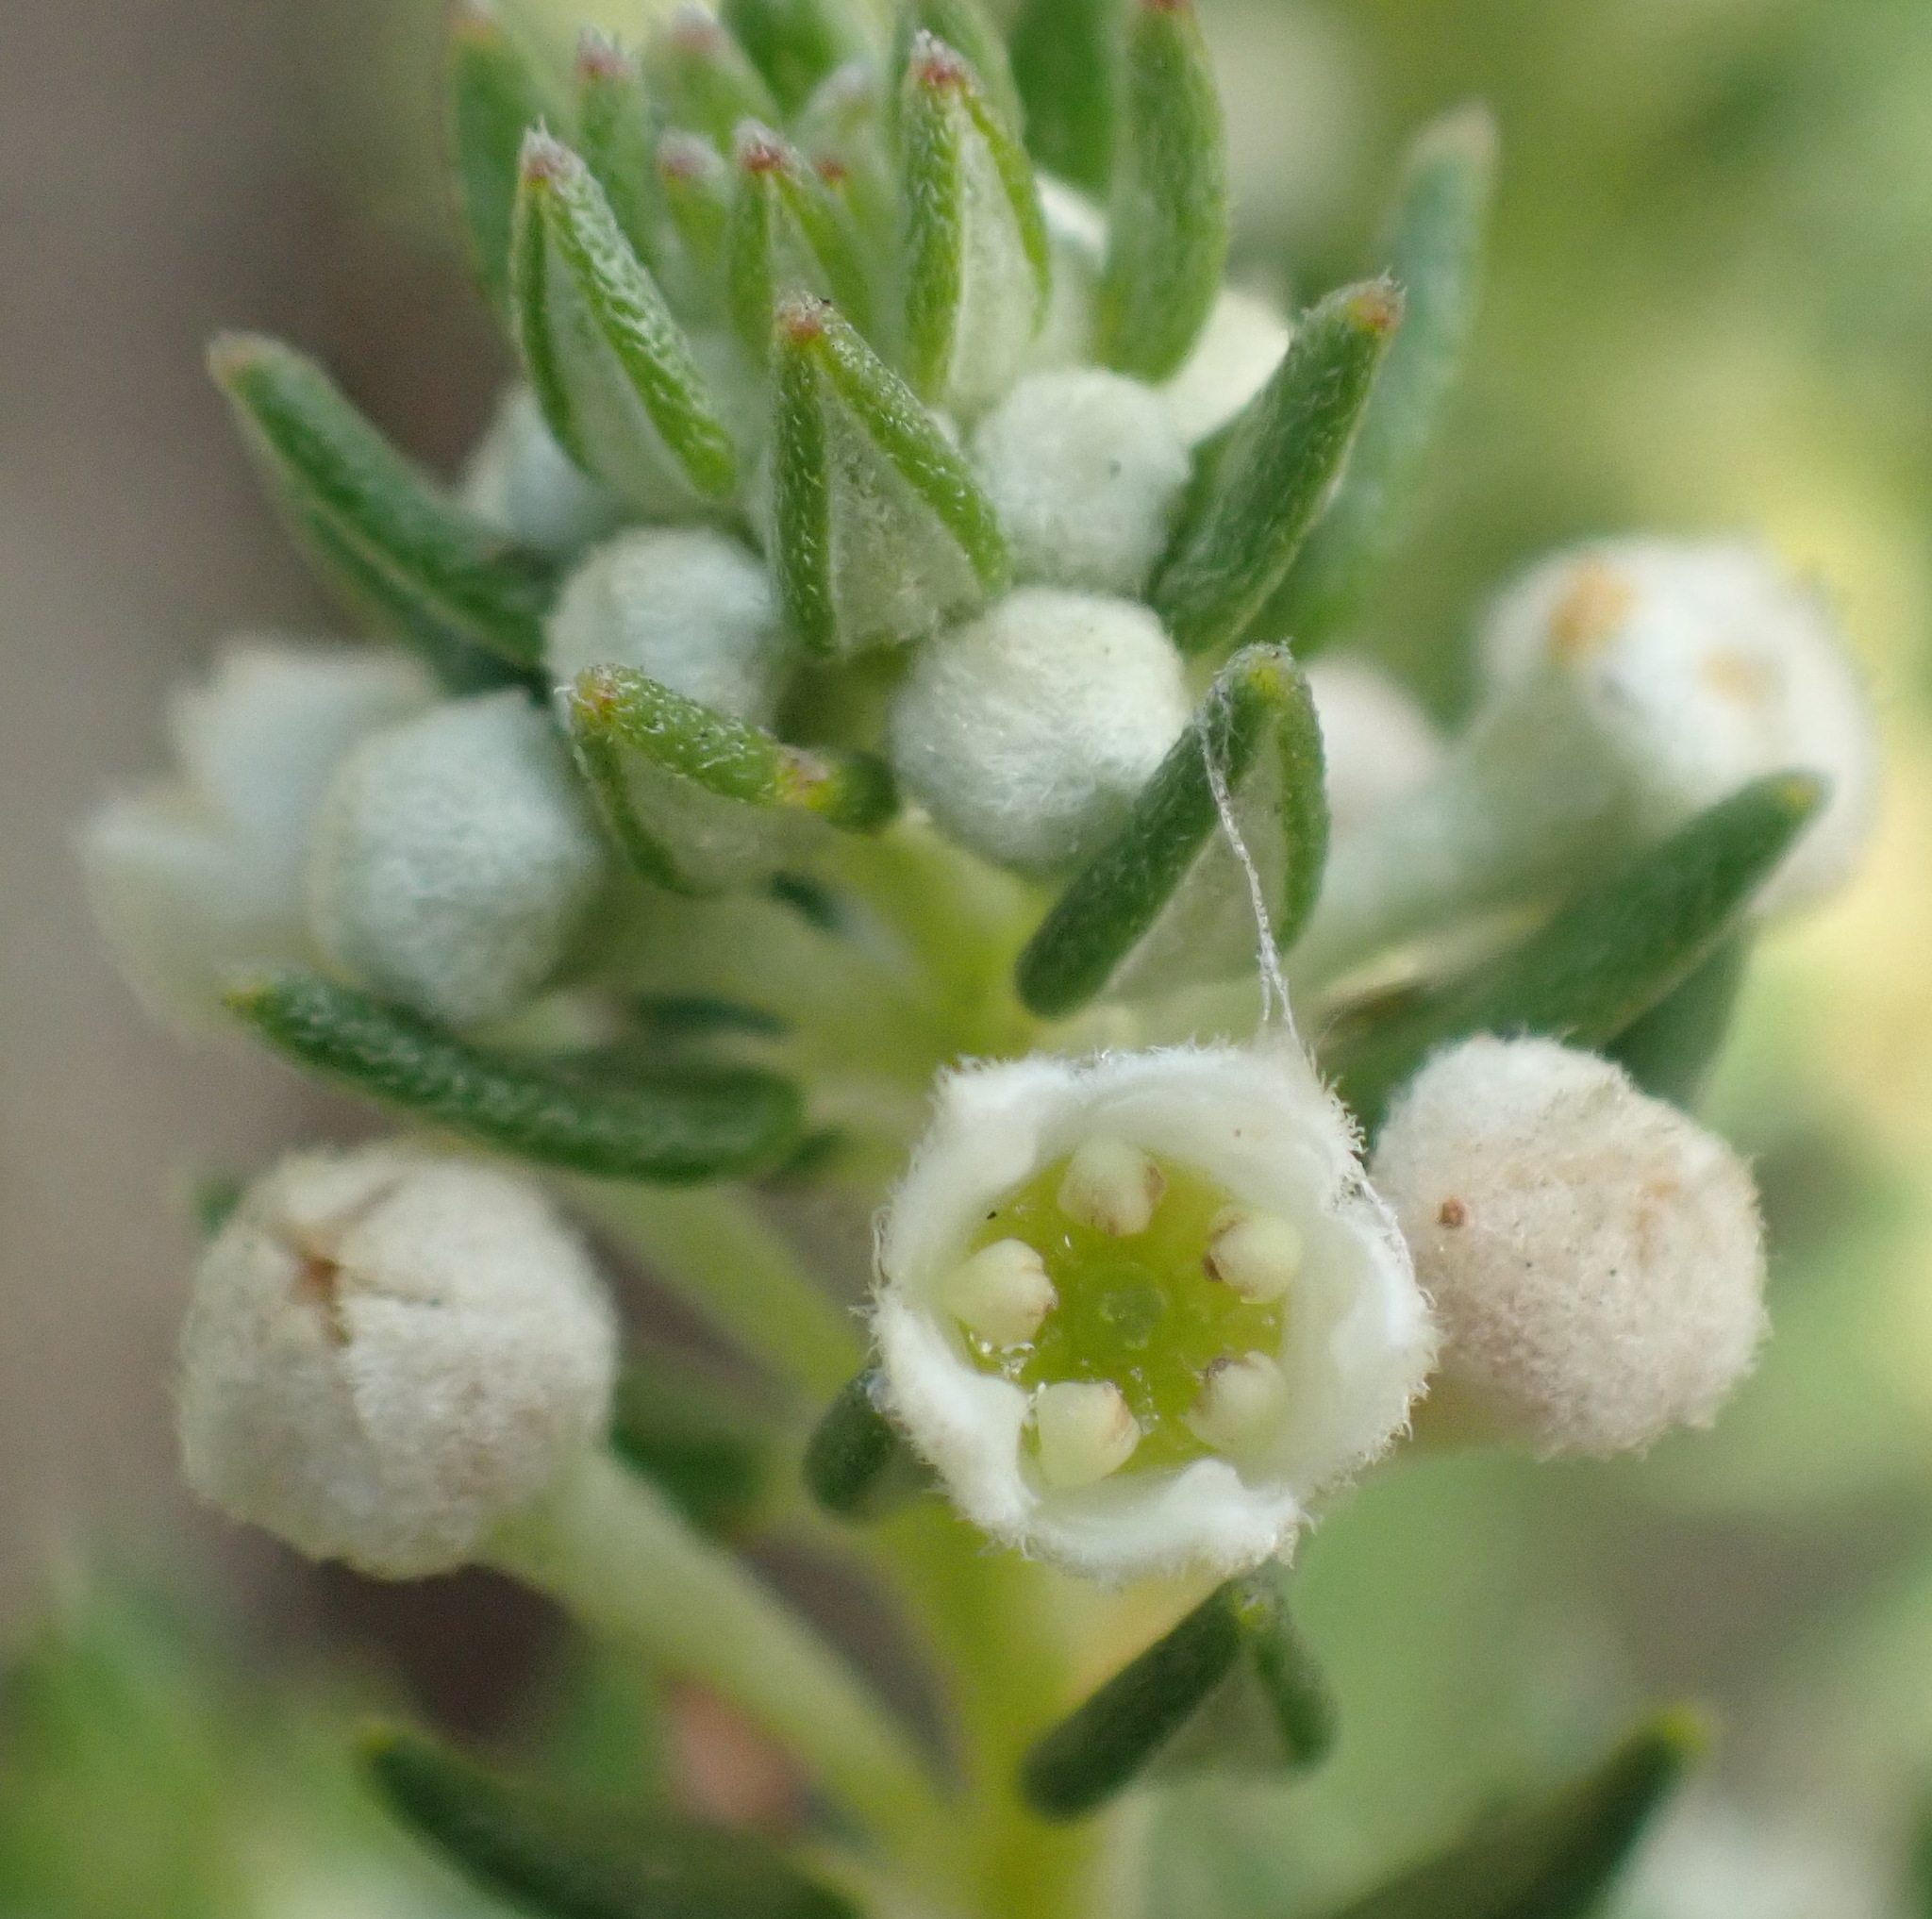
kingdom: Plantae
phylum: Tracheophyta
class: Magnoliopsida
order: Rosales
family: Rhamnaceae
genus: Phylica
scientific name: Phylica axillaris
